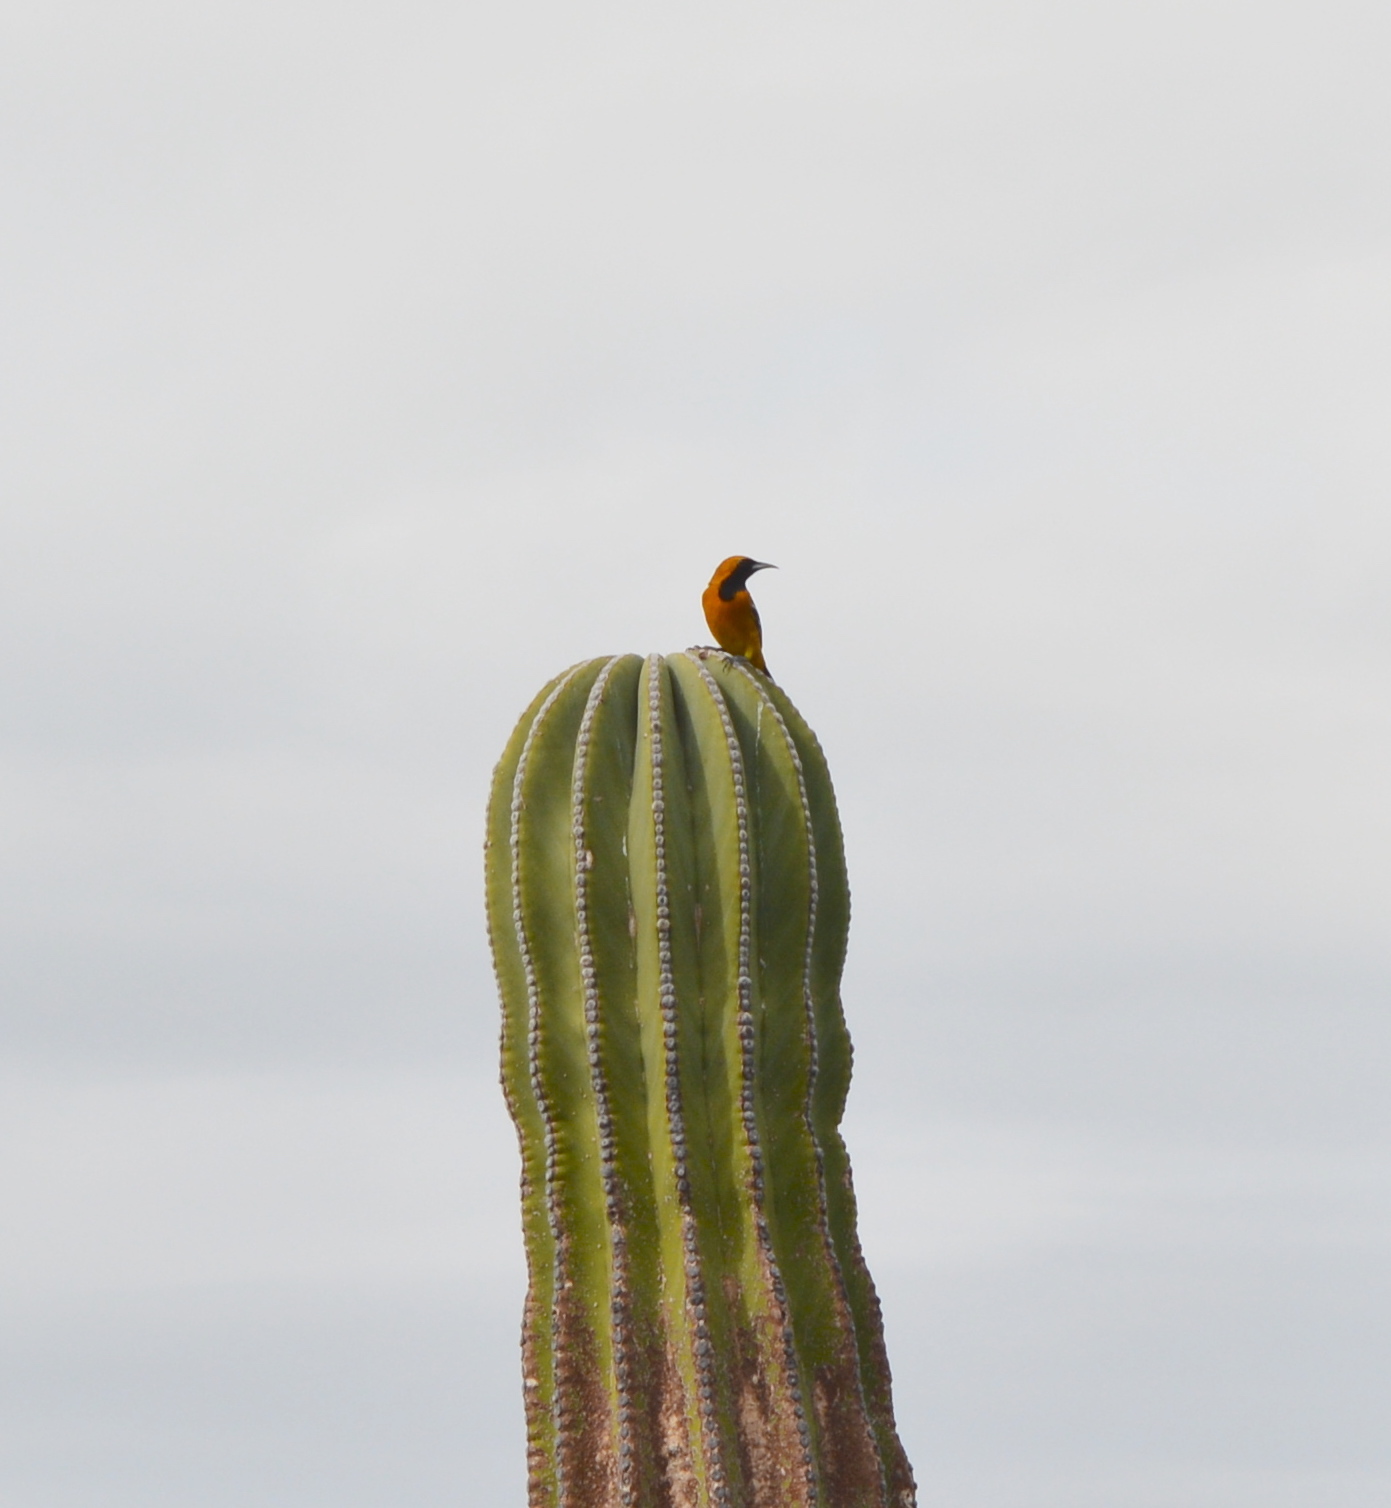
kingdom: Animalia
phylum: Chordata
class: Aves
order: Passeriformes
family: Icteridae
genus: Icterus
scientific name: Icterus cucullatus
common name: Hooded oriole
